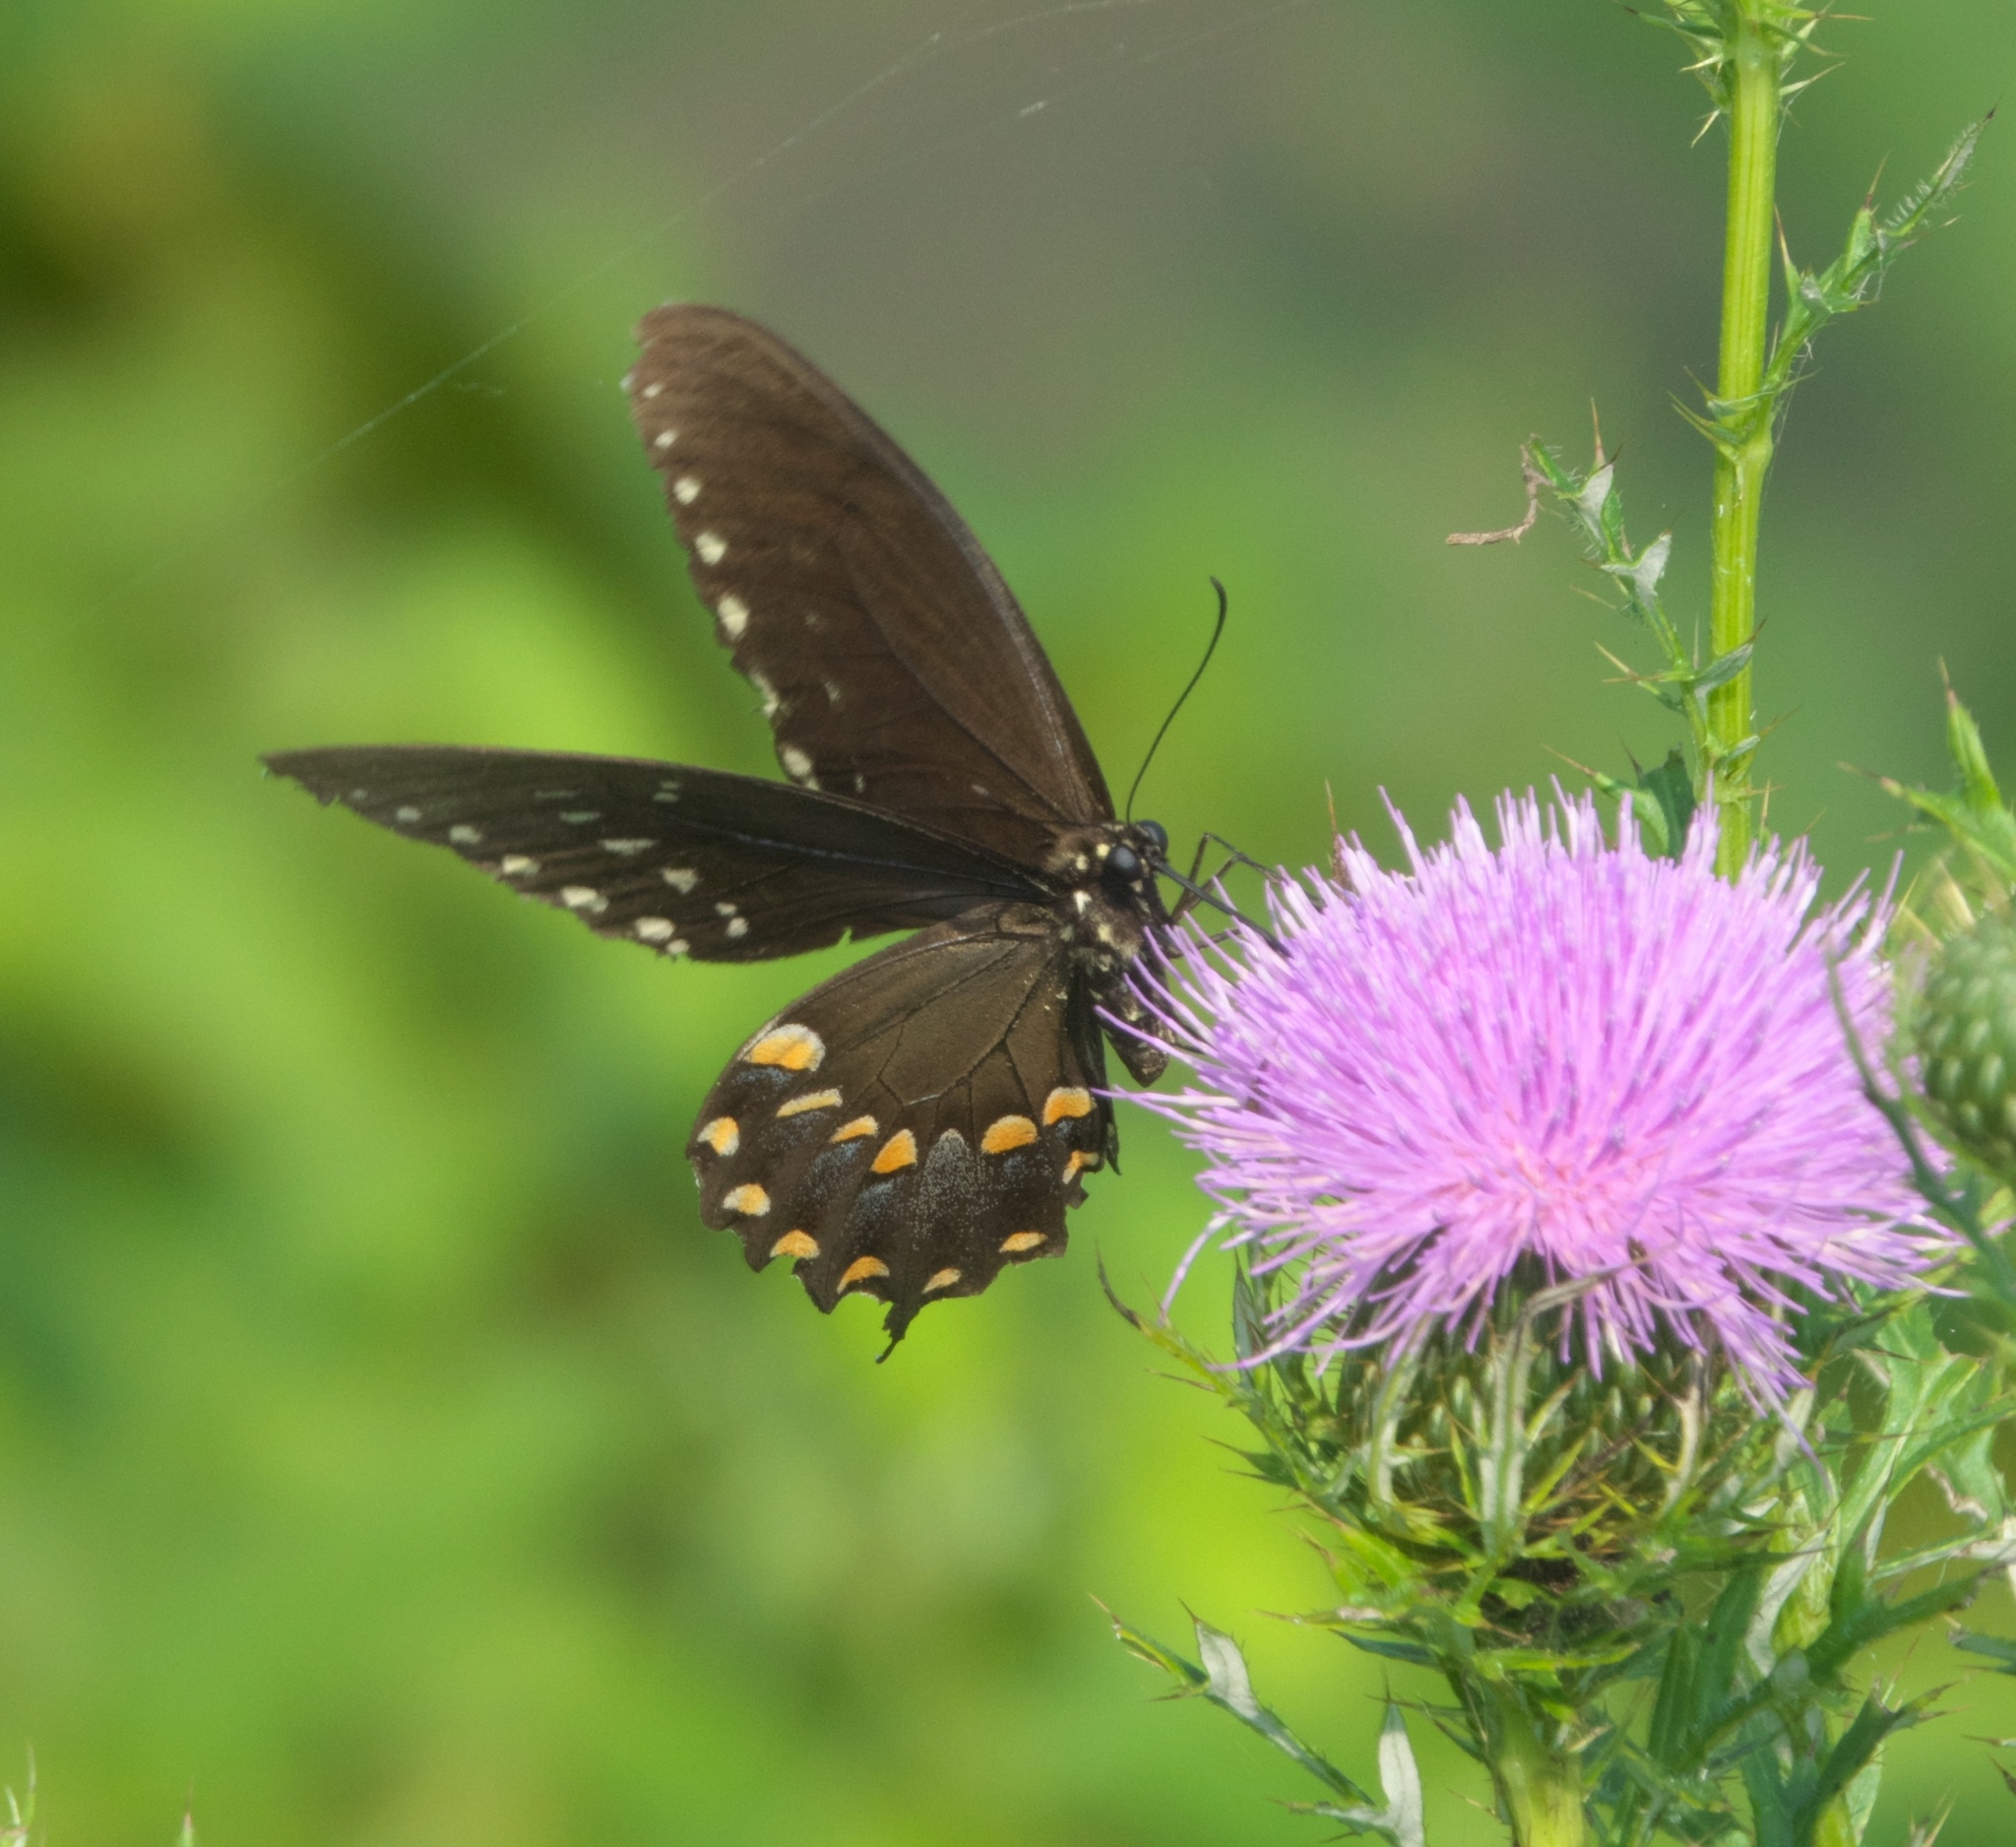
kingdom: Animalia
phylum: Arthropoda
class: Insecta
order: Lepidoptera
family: Papilionidae
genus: Papilio
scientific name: Papilio troilus
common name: Spicebush swallowtail
